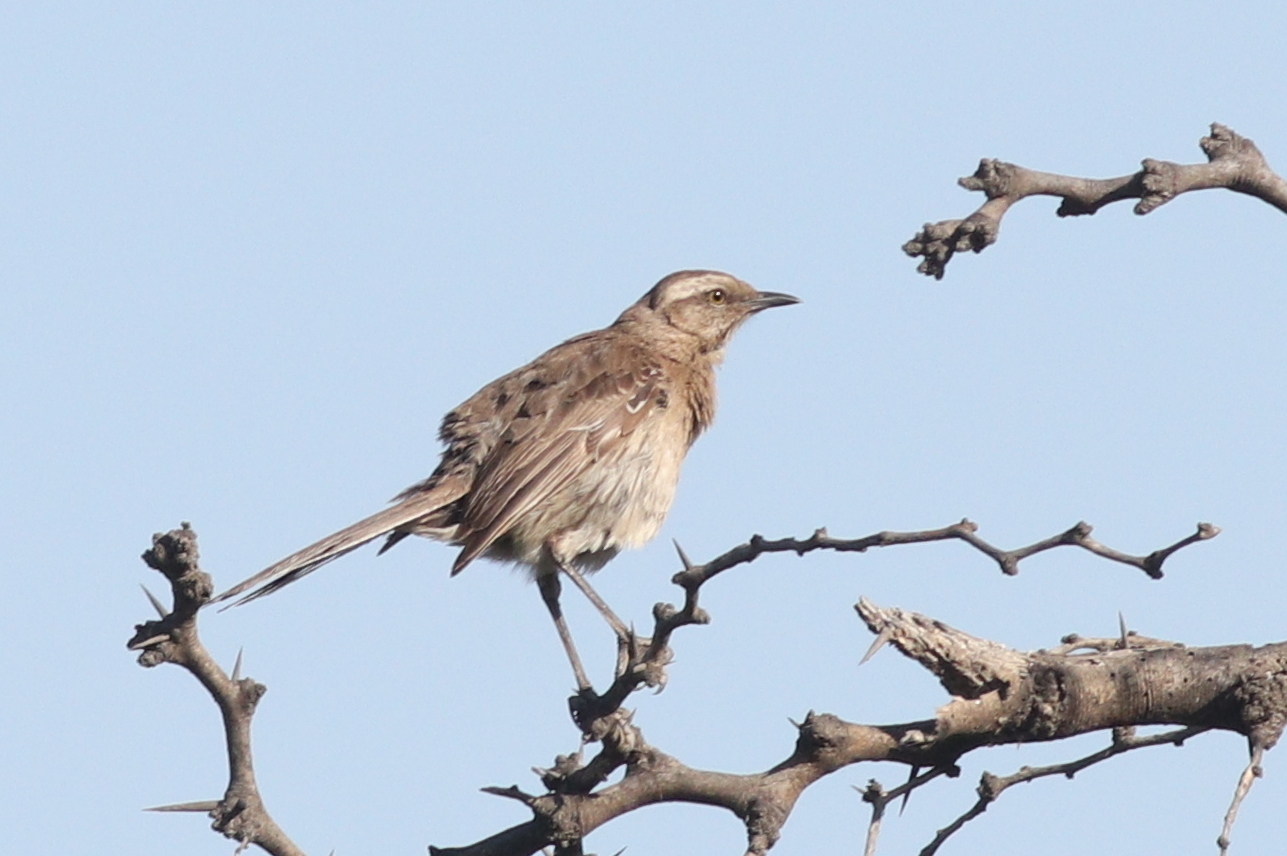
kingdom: Animalia
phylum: Chordata
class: Aves
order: Passeriformes
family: Mimidae
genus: Mimus
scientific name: Mimus thenca
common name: Chilean mockingbird
